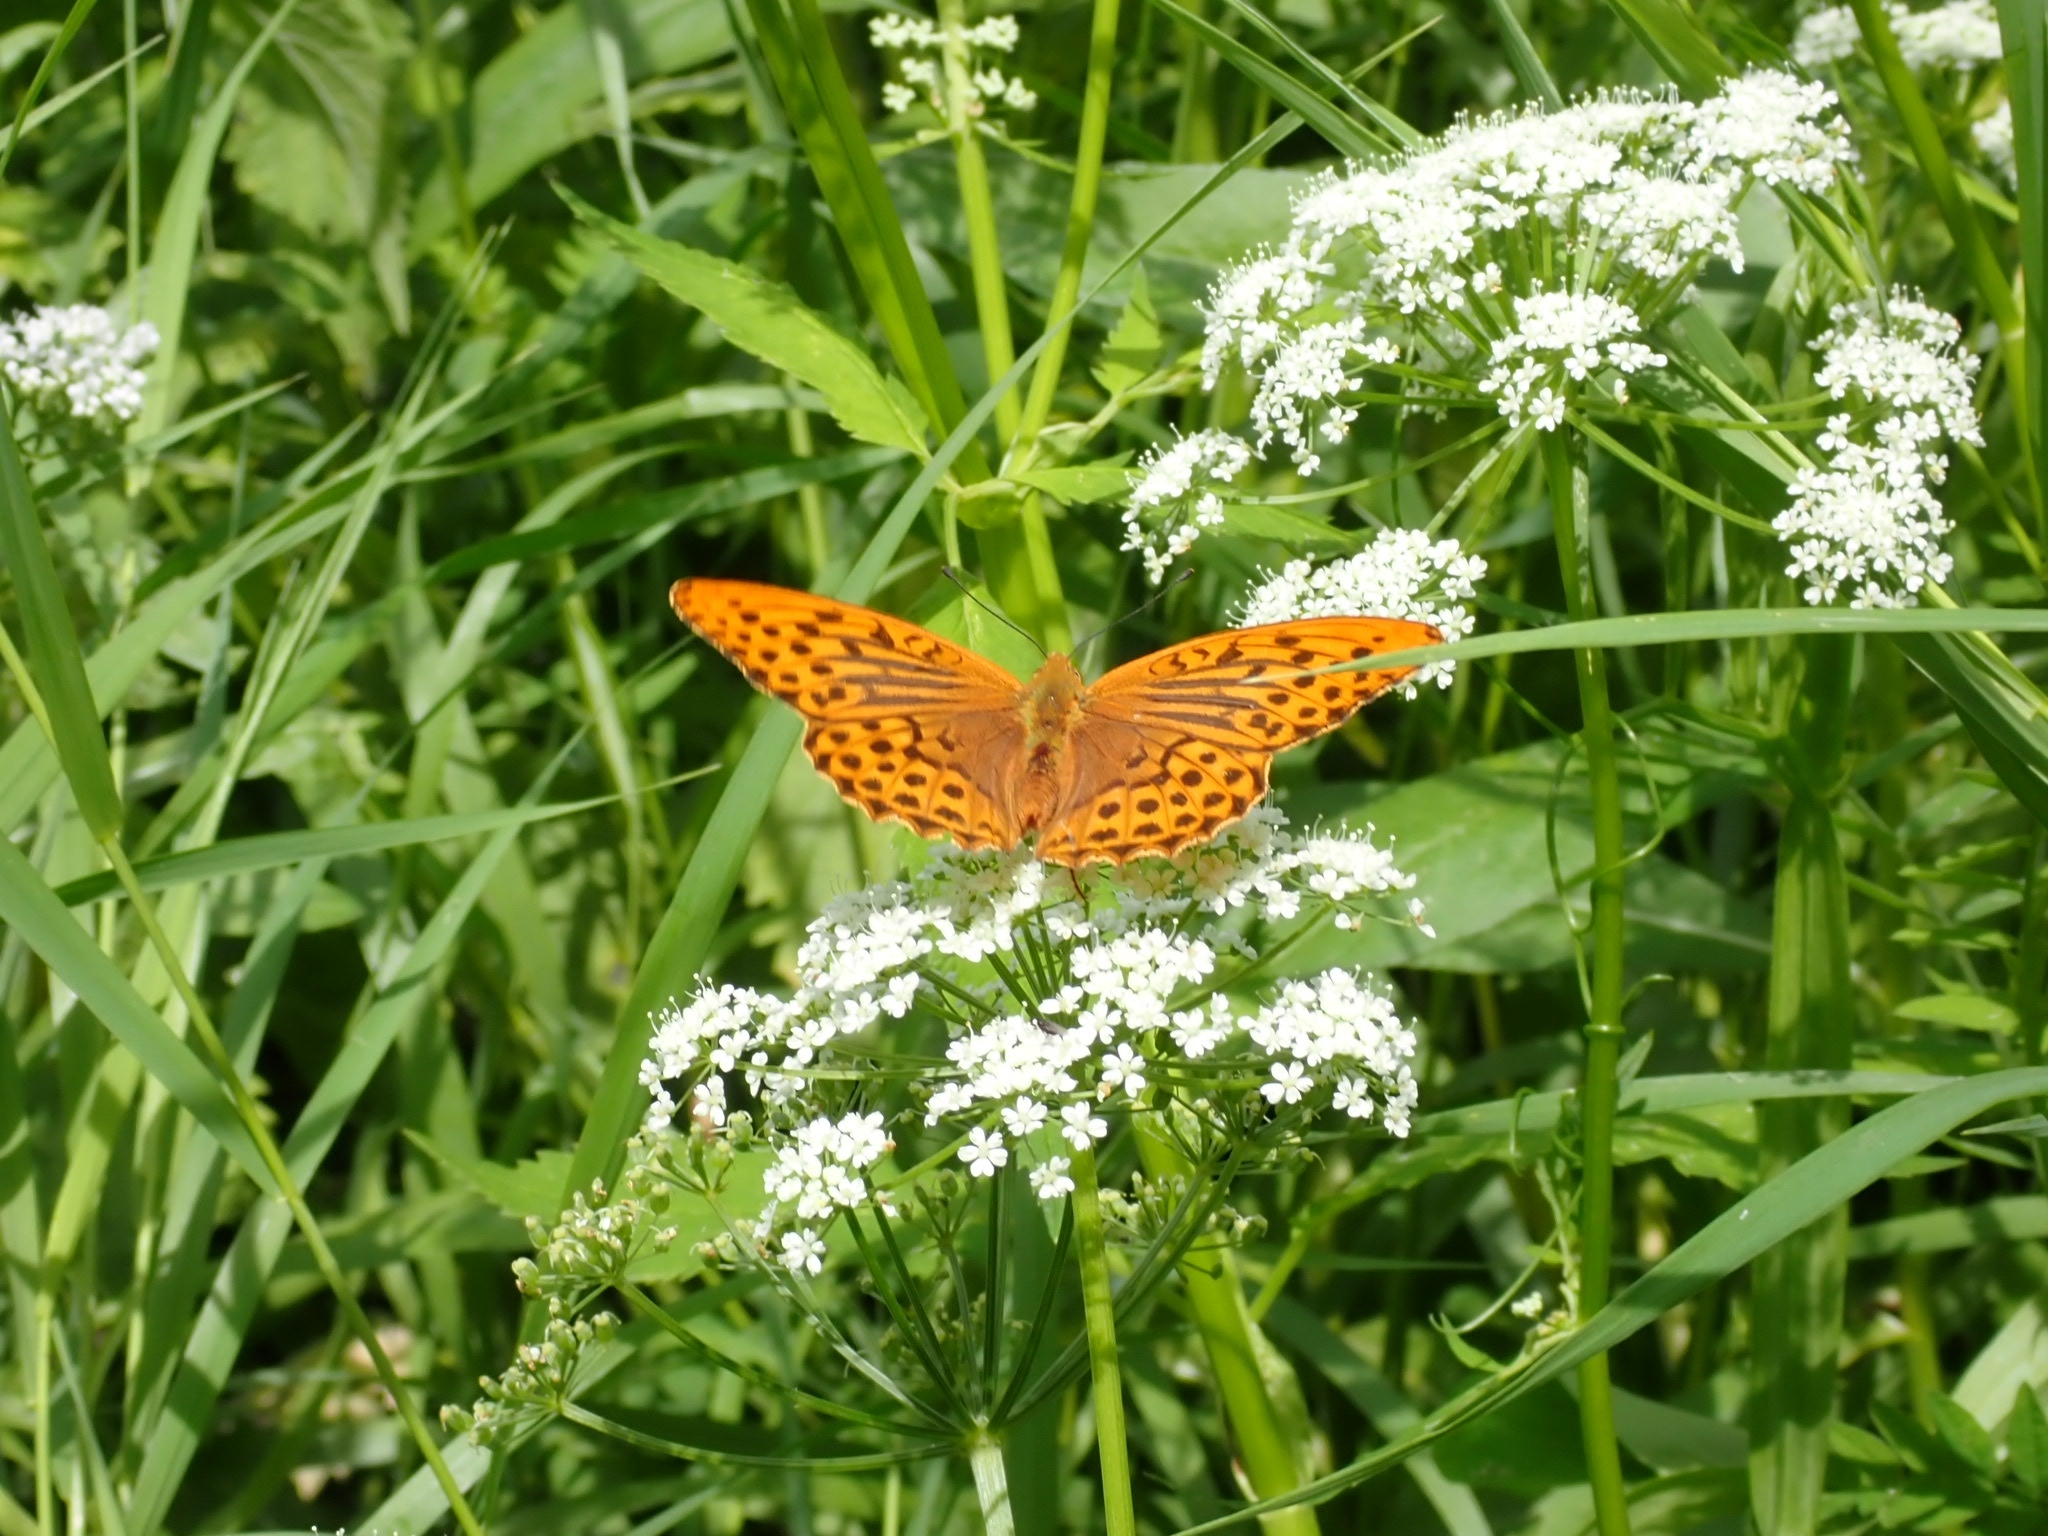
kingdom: Animalia
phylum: Arthropoda
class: Insecta
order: Lepidoptera
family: Nymphalidae
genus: Argynnis
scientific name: Argynnis paphia
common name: Silver-washed fritillary
